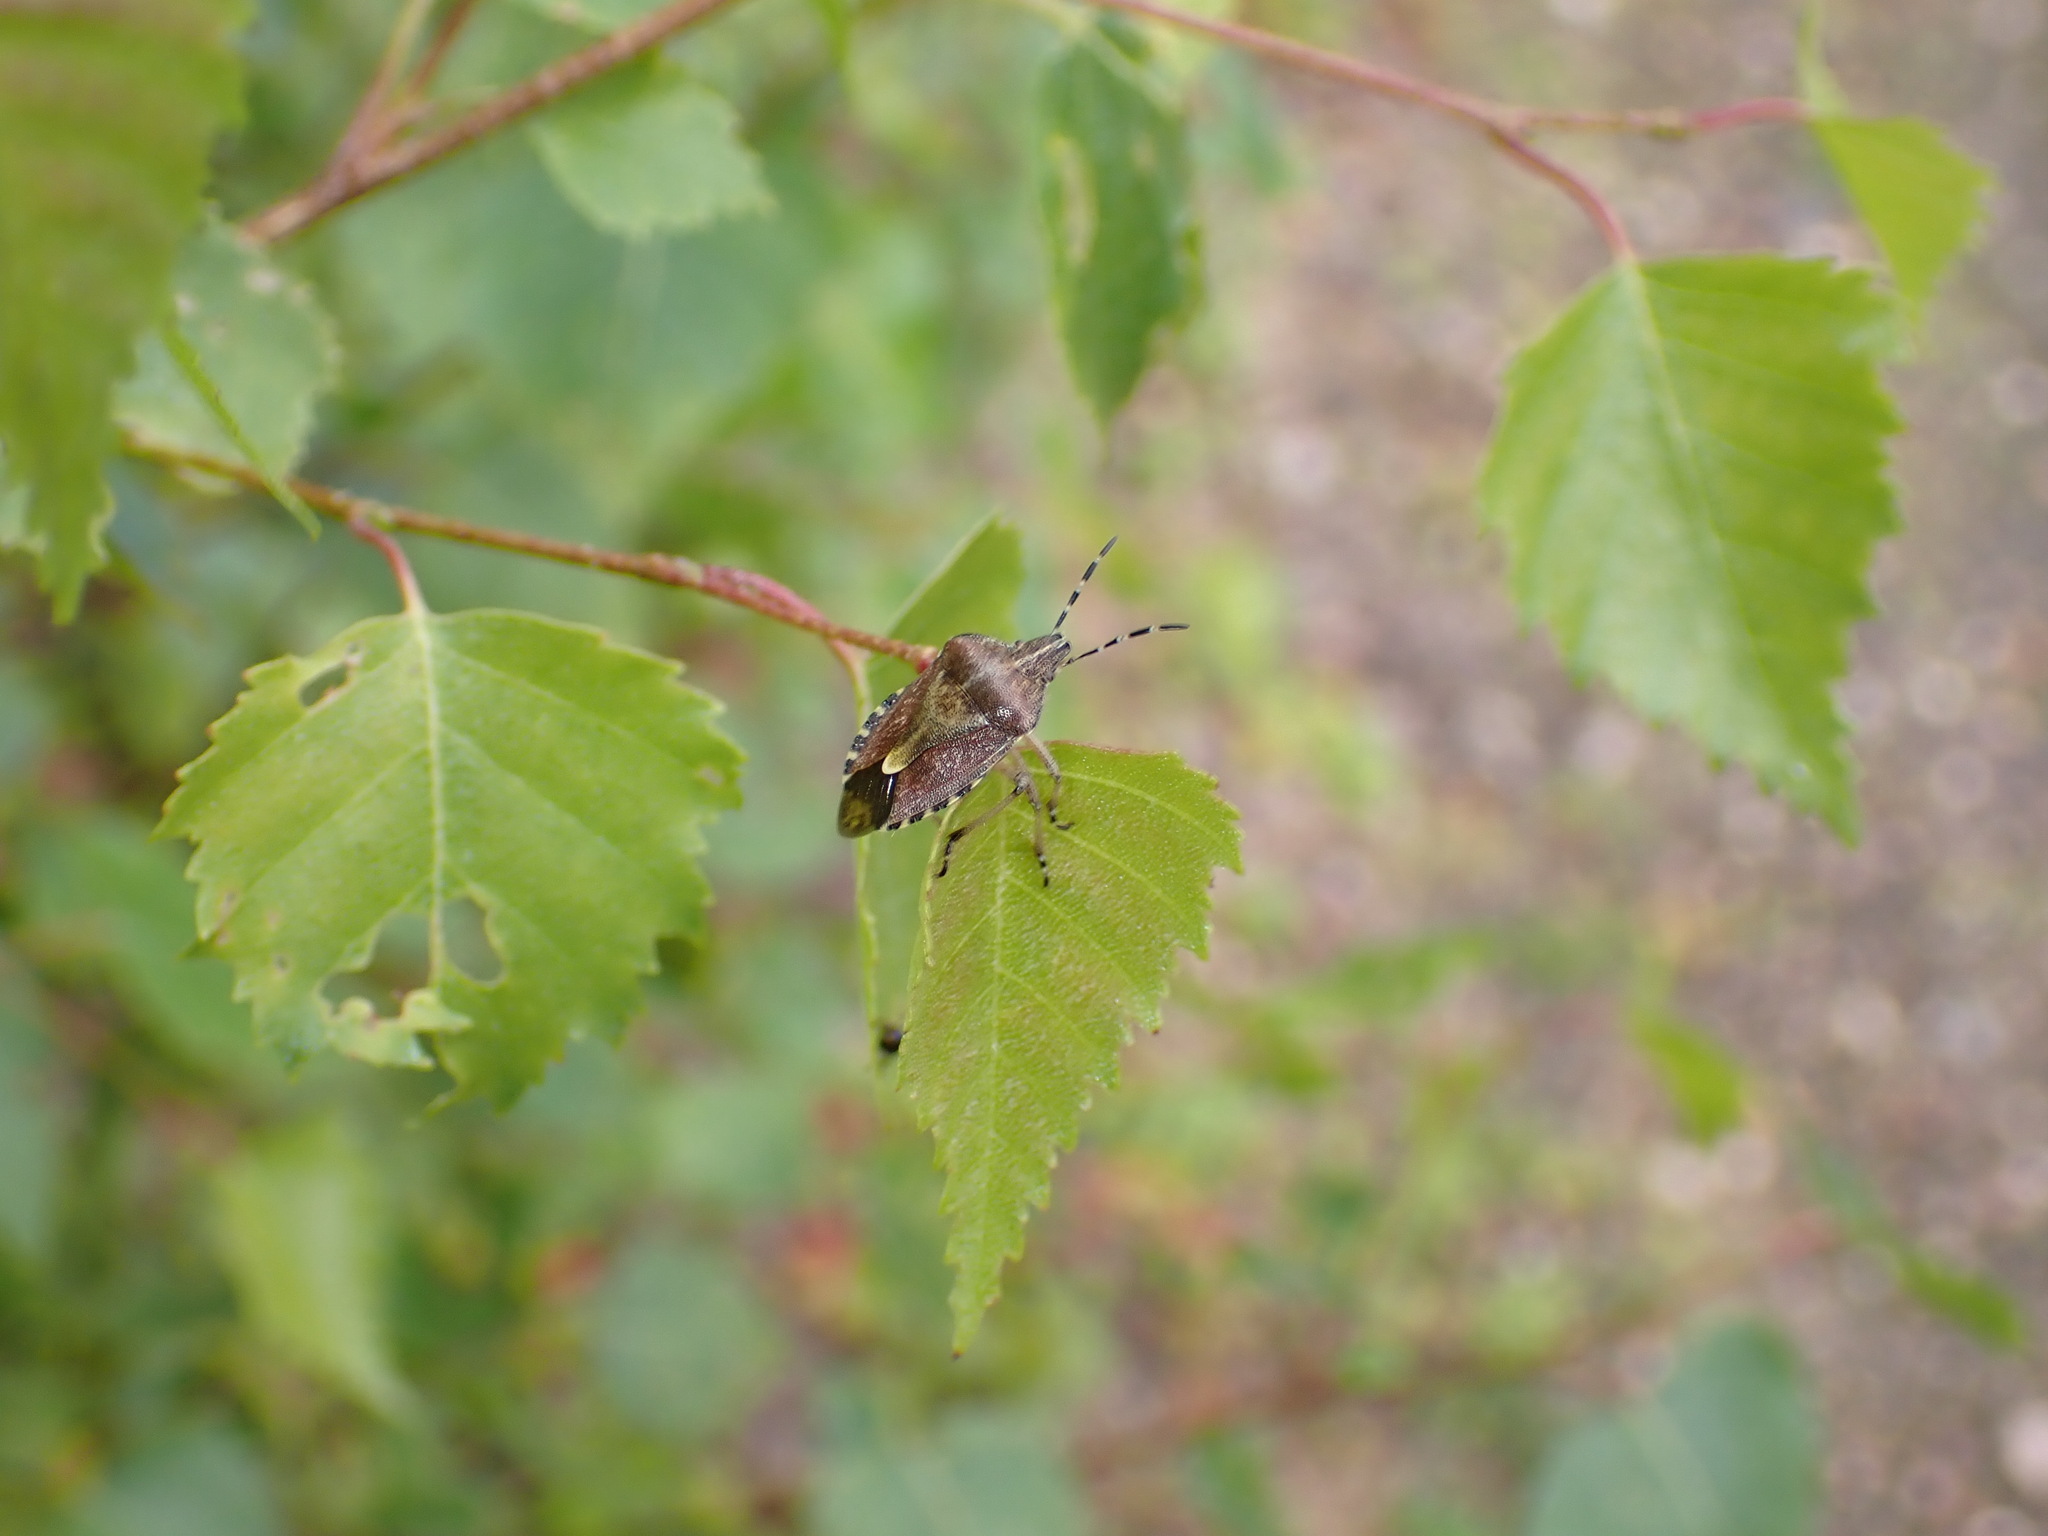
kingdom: Animalia
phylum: Arthropoda
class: Insecta
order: Hemiptera
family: Pentatomidae
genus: Dolycoris
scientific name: Dolycoris baccarum
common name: Sloe bug
